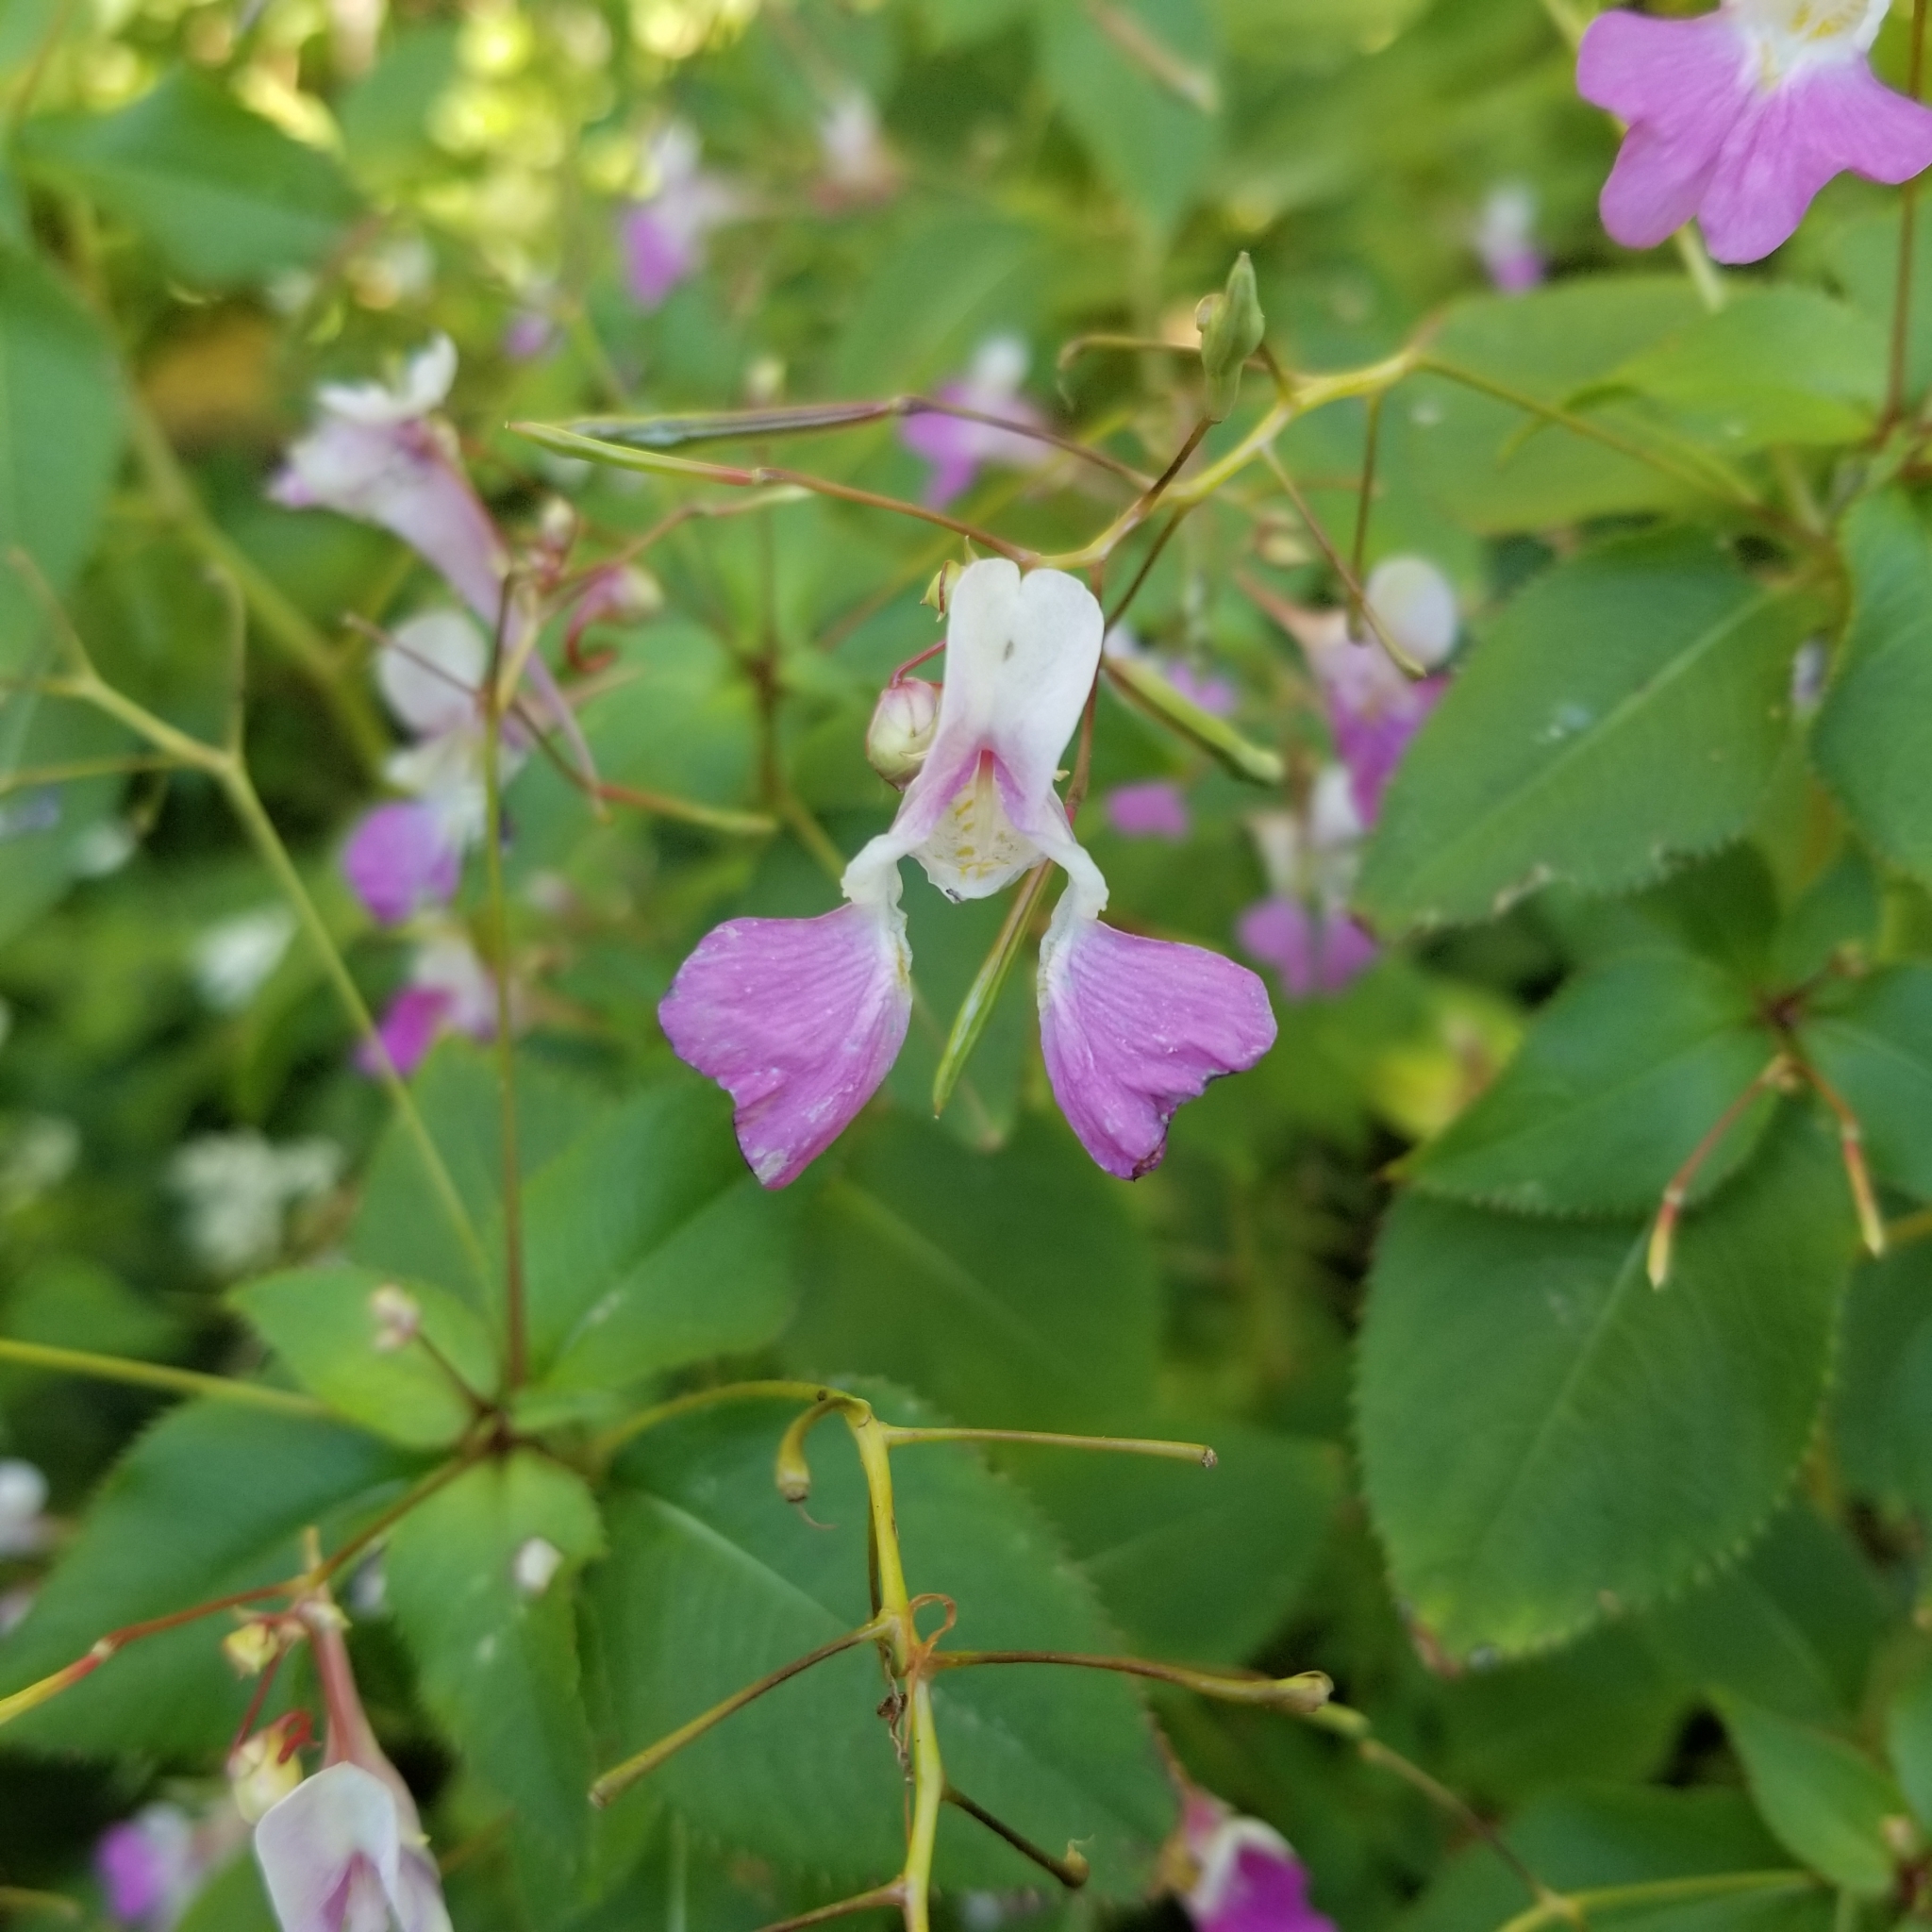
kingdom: Plantae
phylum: Tracheophyta
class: Magnoliopsida
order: Ericales
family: Balsaminaceae
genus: Impatiens
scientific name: Impatiens balfourii
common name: Balfour's touch-me-not
